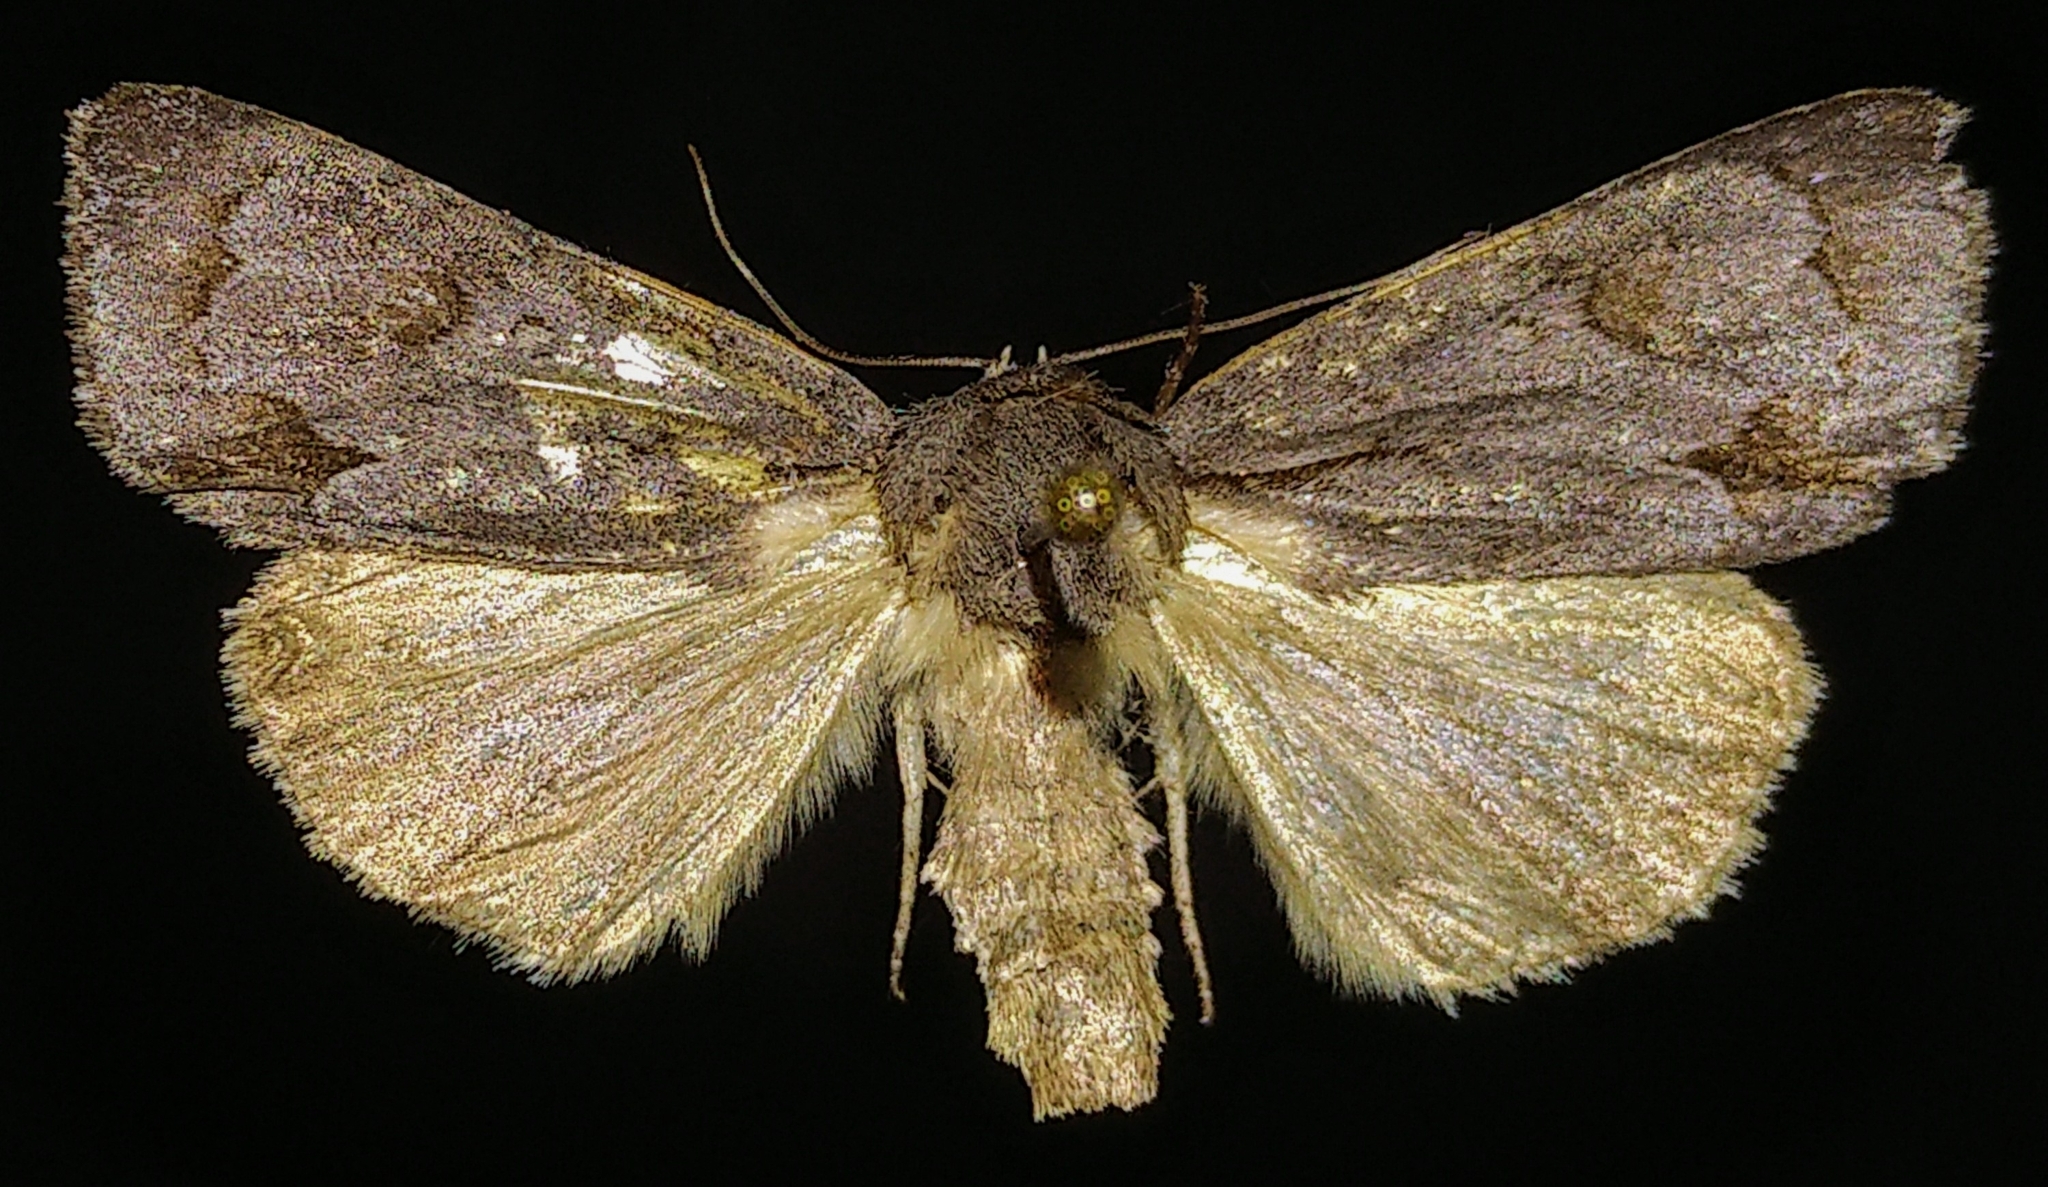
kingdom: Animalia
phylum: Arthropoda
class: Insecta
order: Lepidoptera
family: Noctuidae
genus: Acronicta
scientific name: Acronicta tritona
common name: Triton dagger
